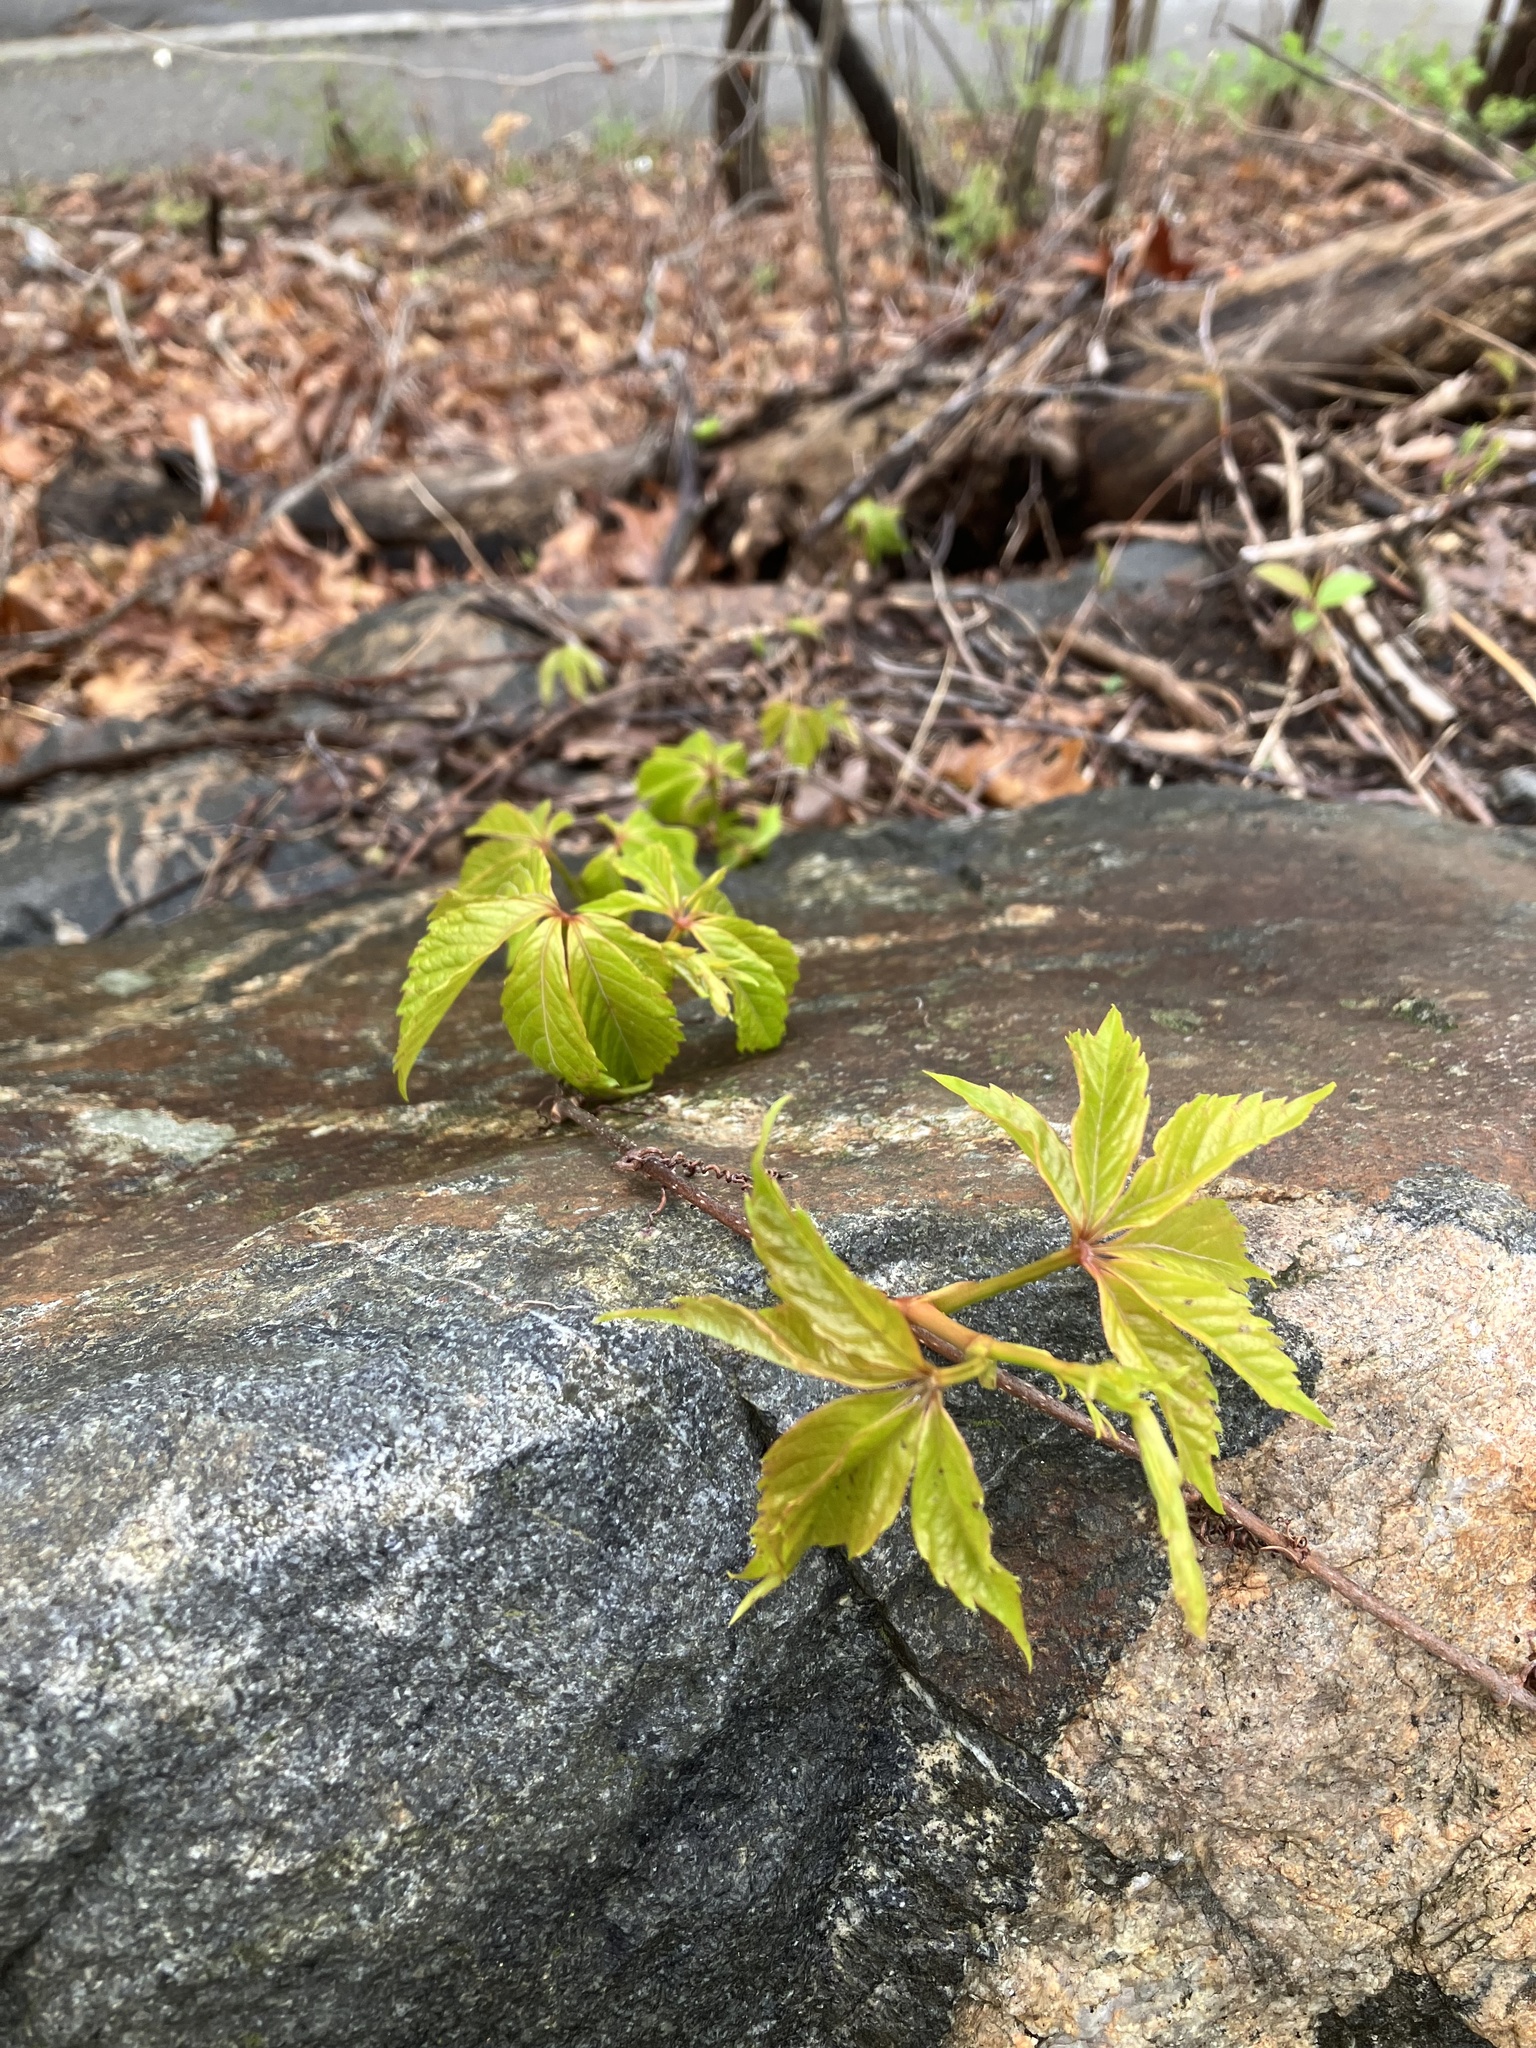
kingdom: Plantae
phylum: Tracheophyta
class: Magnoliopsida
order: Vitales
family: Vitaceae
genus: Parthenocissus
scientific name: Parthenocissus quinquefolia
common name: Virginia-creeper
